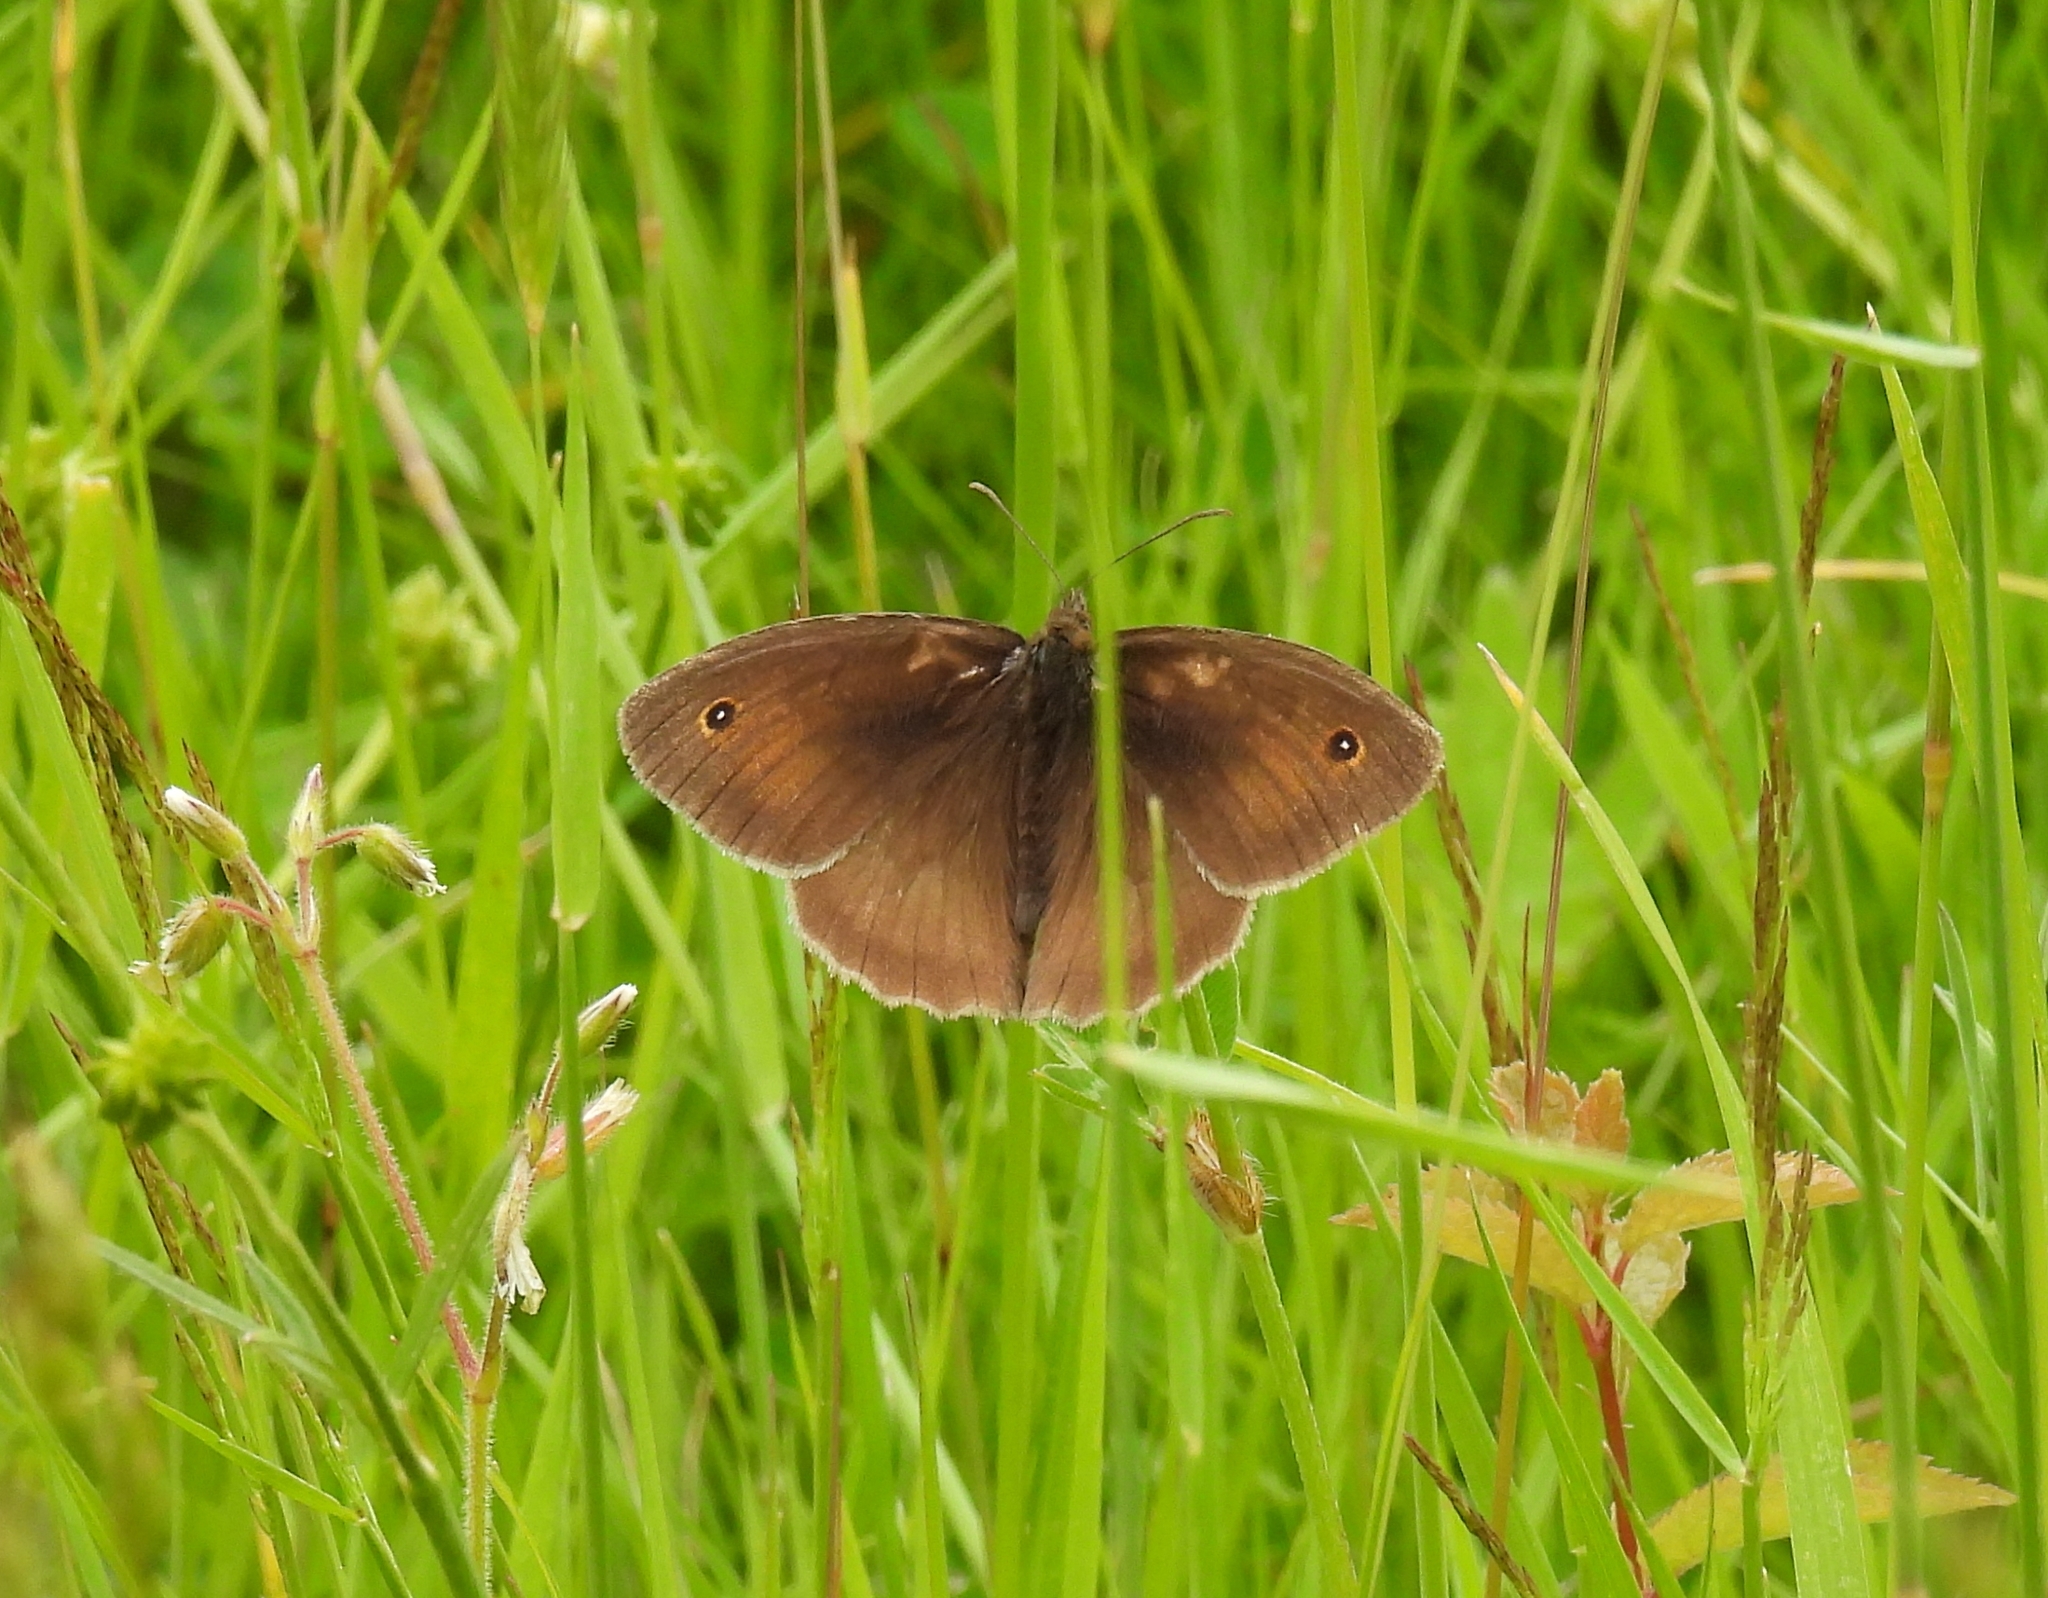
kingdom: Animalia
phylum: Arthropoda
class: Insecta
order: Lepidoptera
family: Nymphalidae
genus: Maniola
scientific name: Maniola jurtina
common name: Meadow brown
